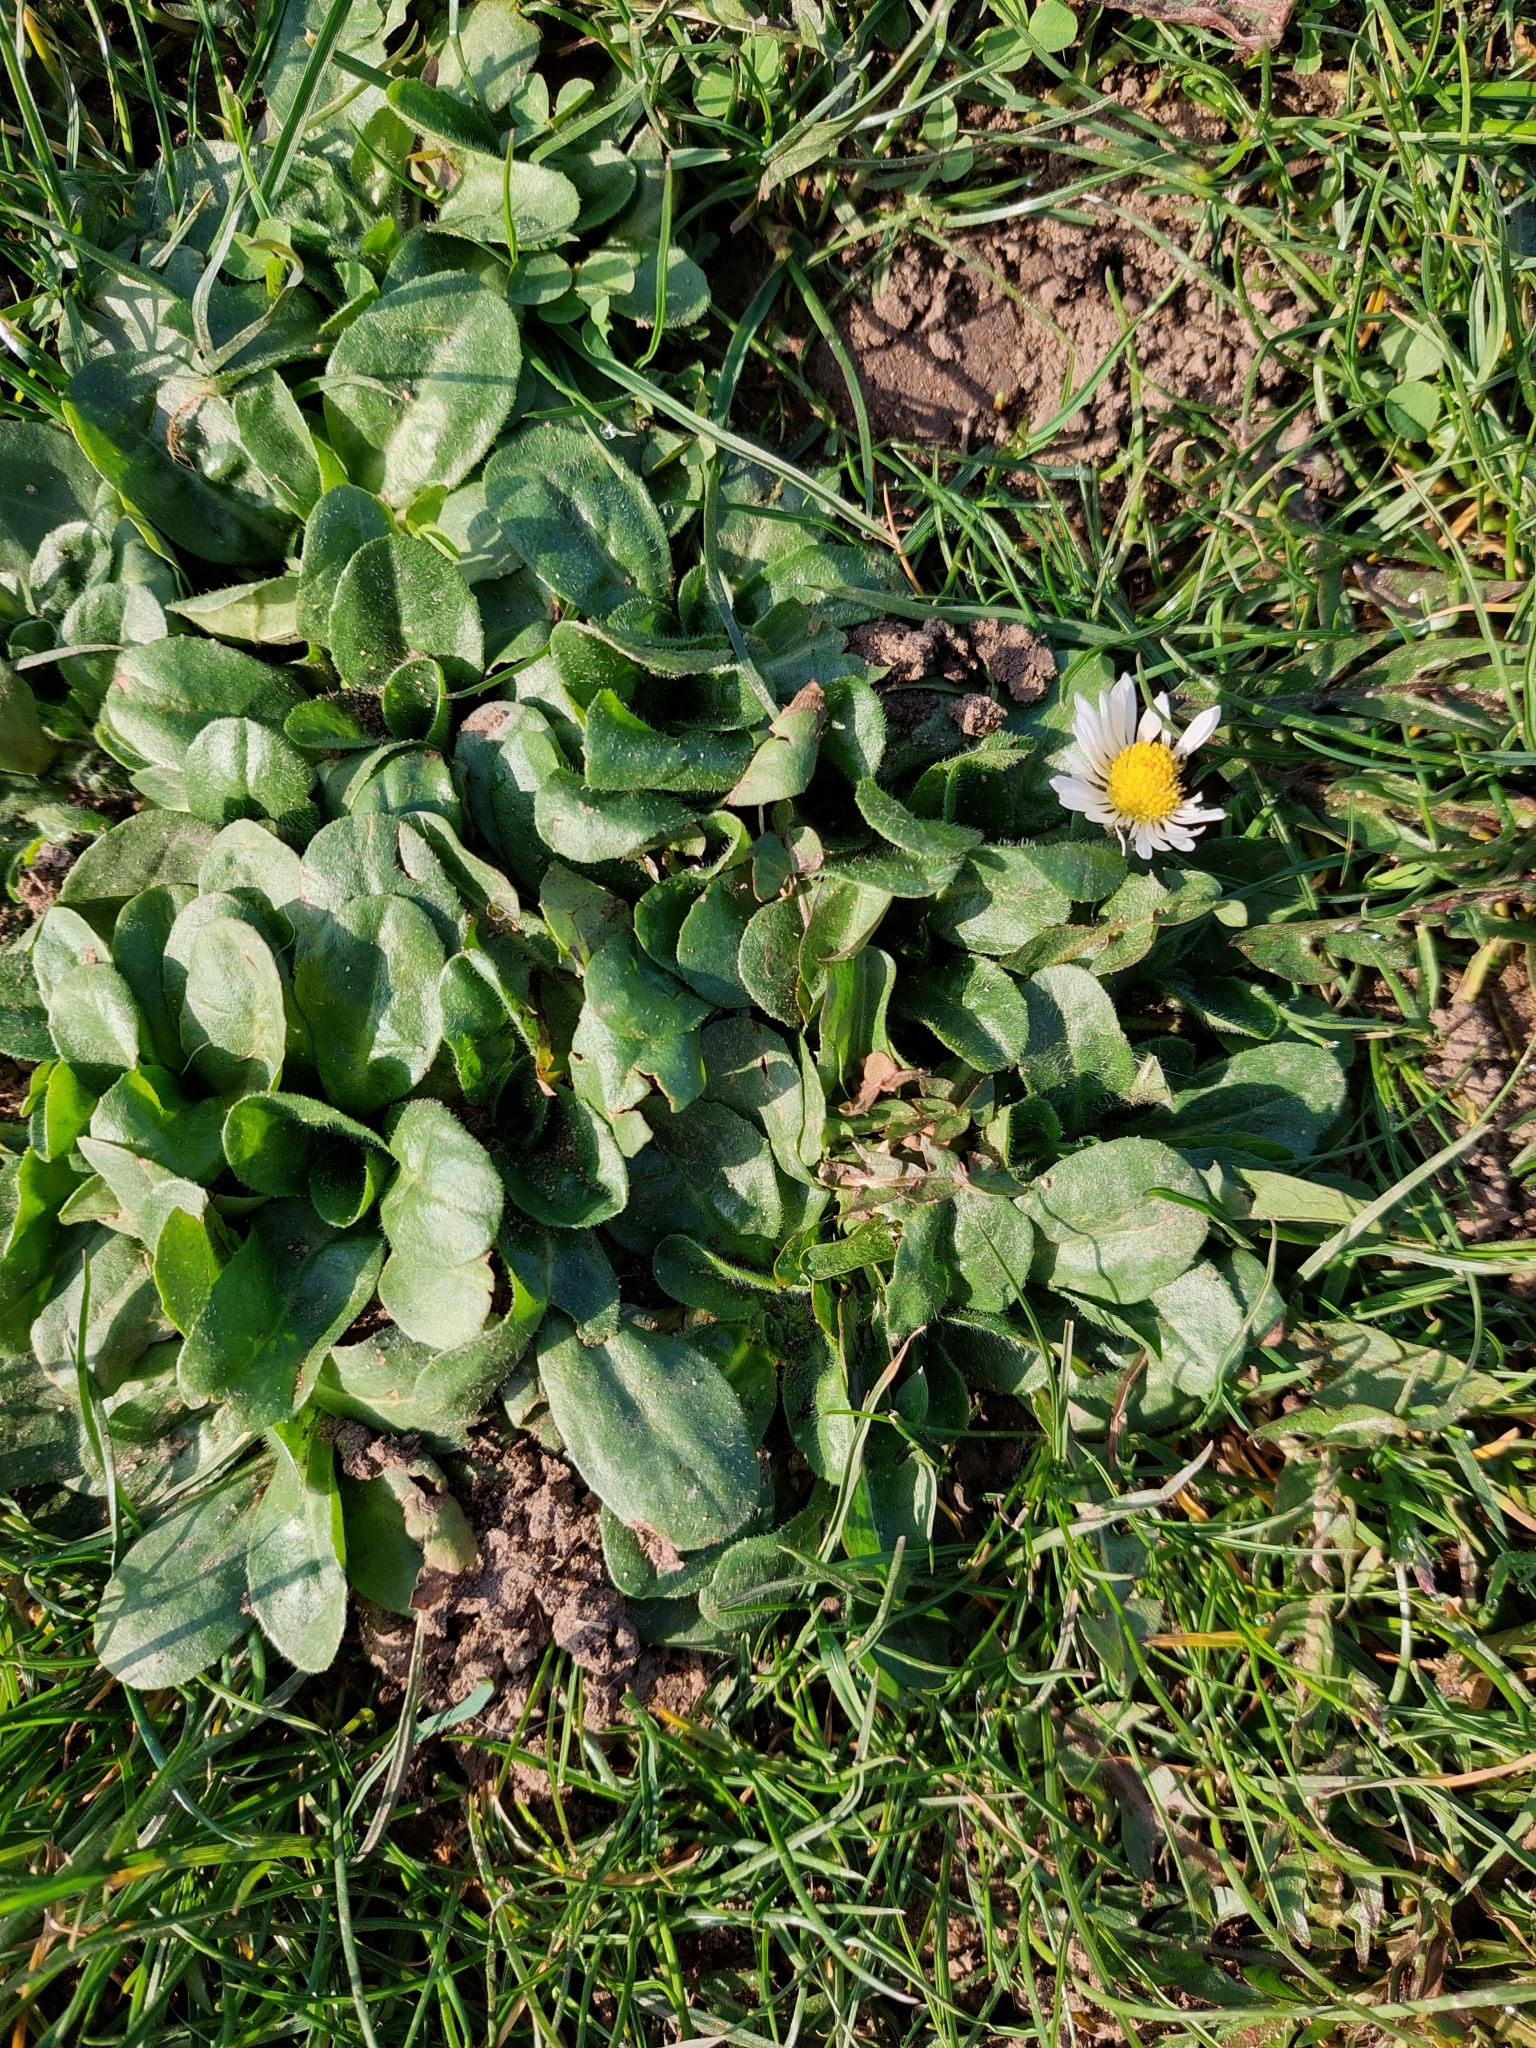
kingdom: Plantae
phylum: Tracheophyta
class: Magnoliopsida
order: Asterales
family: Asteraceae
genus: Bellis
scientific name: Bellis perennis
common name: Lawndaisy
